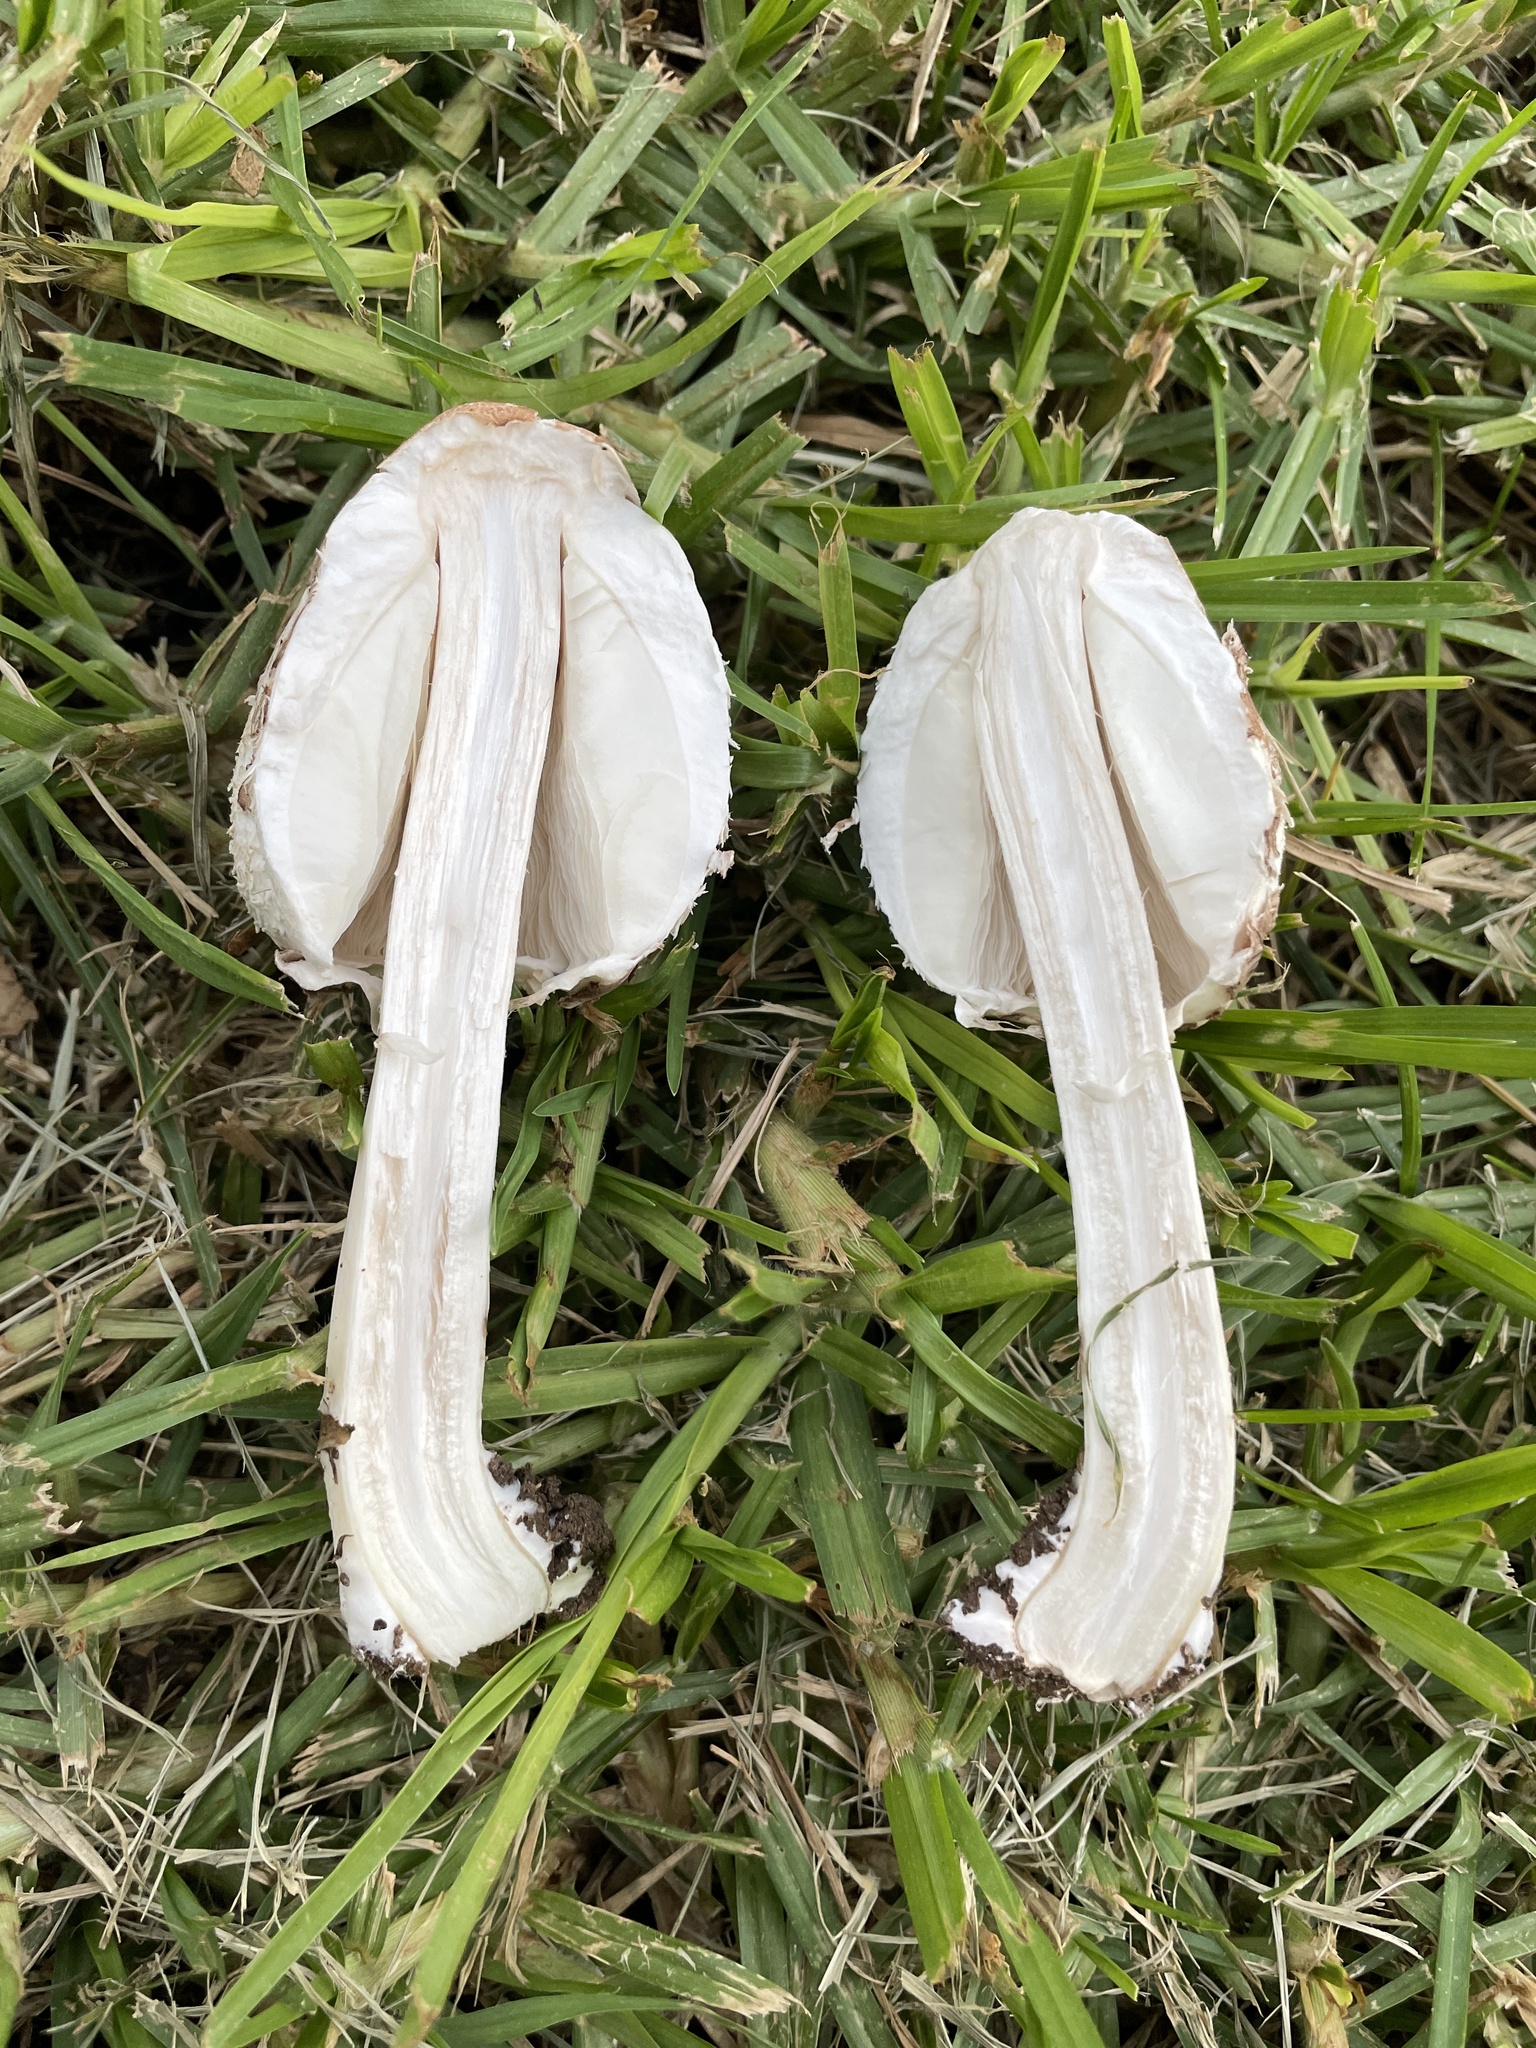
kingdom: Fungi
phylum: Basidiomycota
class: Agaricomycetes
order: Agaricales
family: Agaricaceae
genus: Chlorophyllum
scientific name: Chlorophyllum molybdites
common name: False parasol
